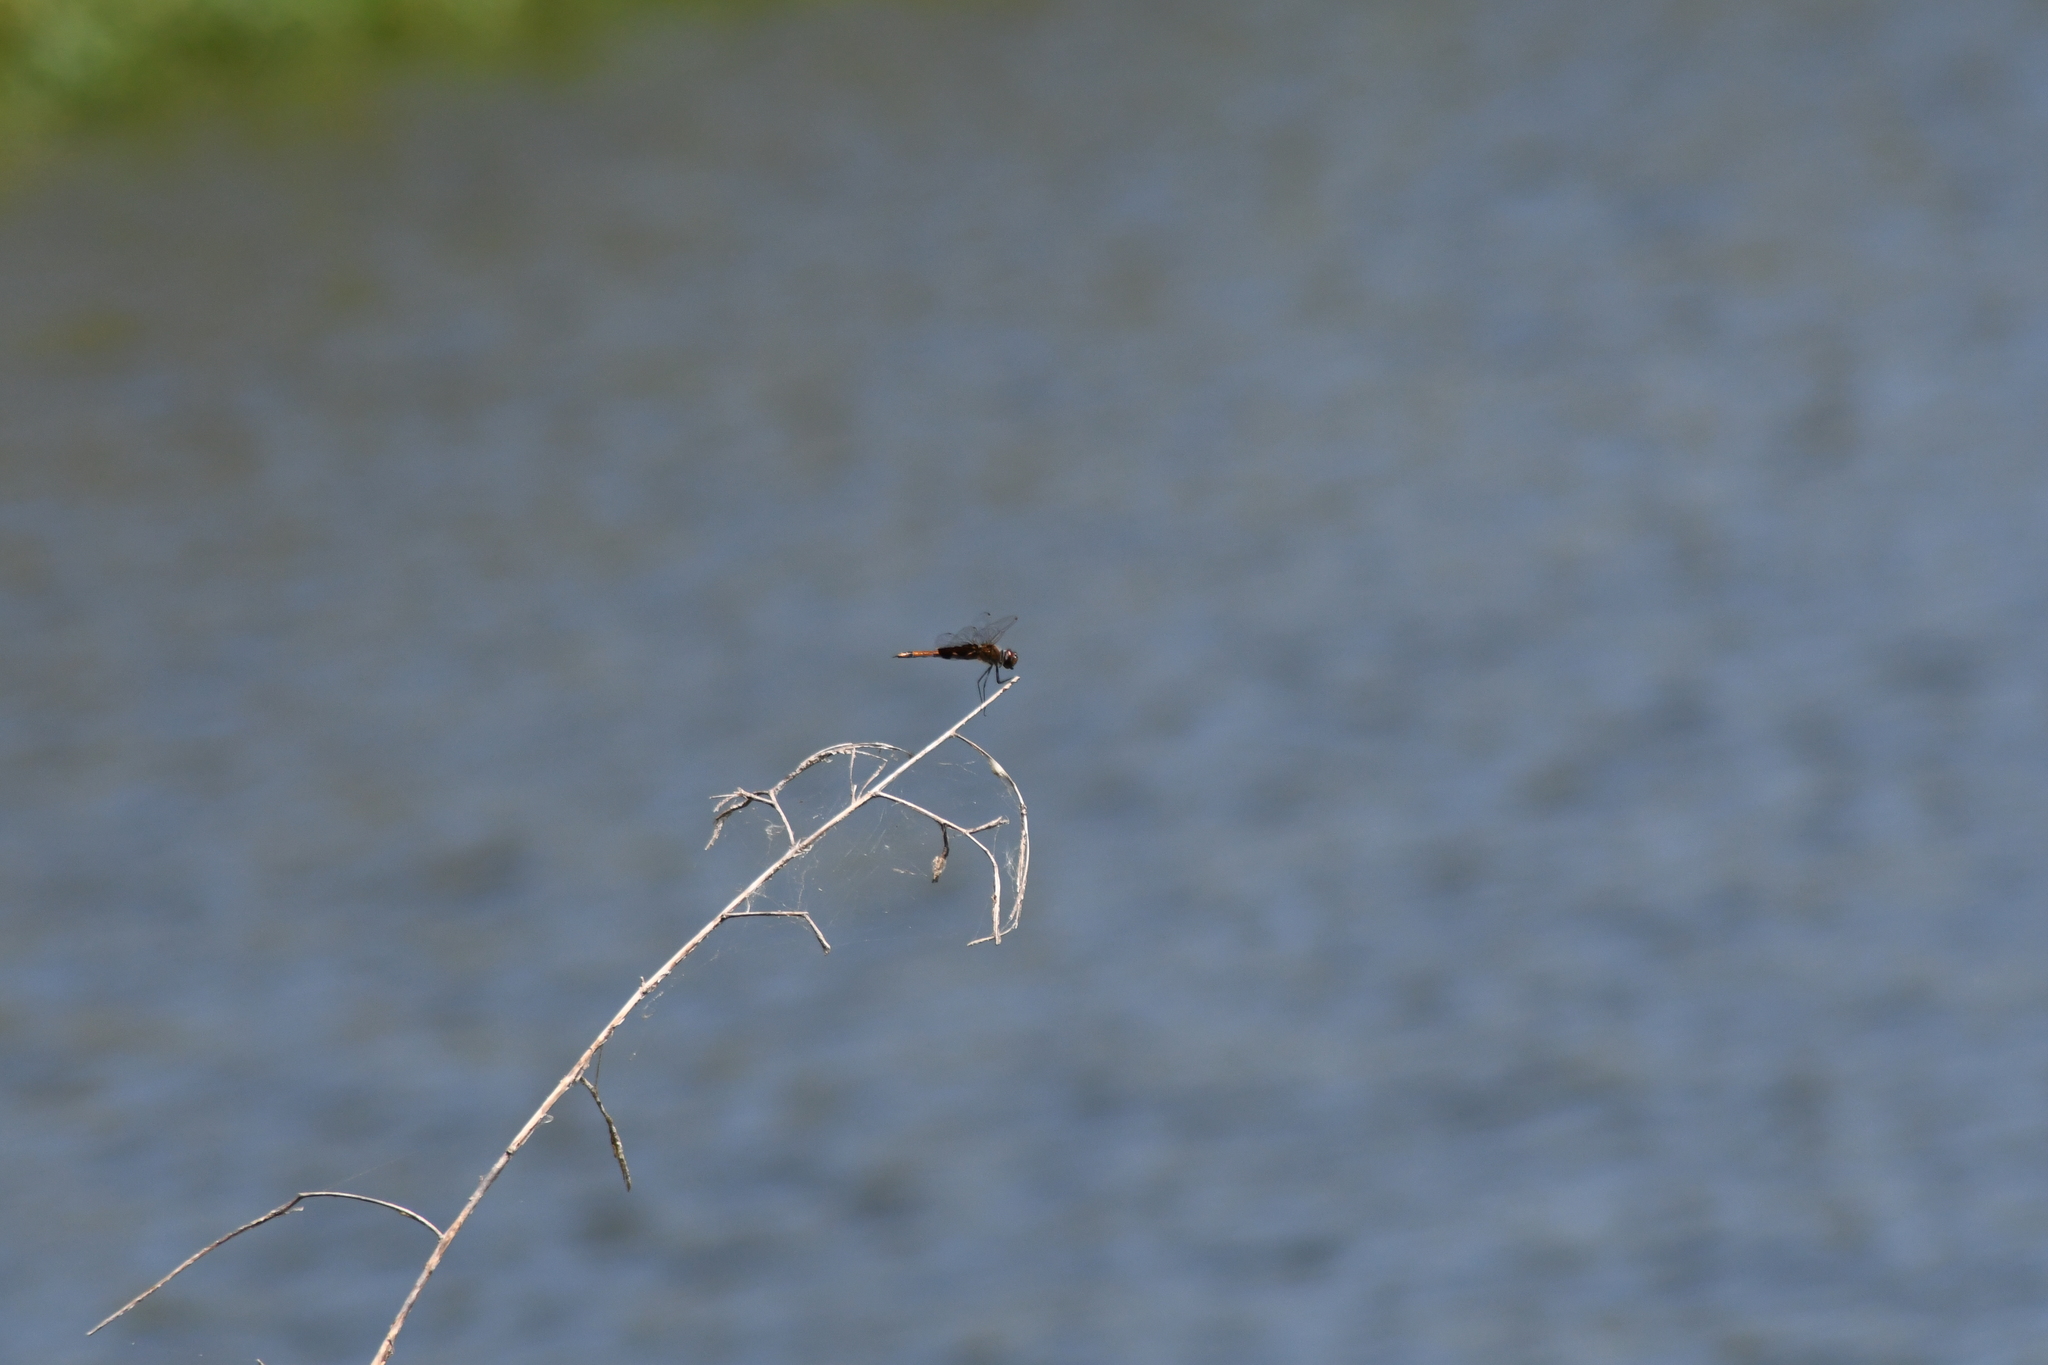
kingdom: Animalia
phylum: Arthropoda
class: Insecta
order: Odonata
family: Libellulidae
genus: Tramea
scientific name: Tramea carolina
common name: Carolina saddlebags
